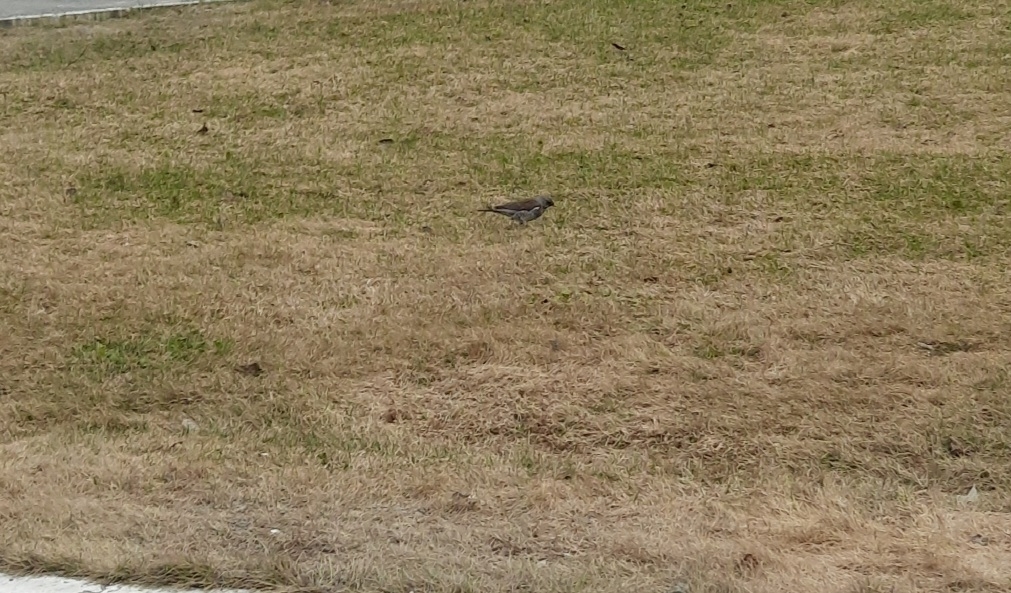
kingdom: Animalia
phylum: Chordata
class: Aves
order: Passeriformes
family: Turdidae
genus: Turdus
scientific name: Turdus pilaris
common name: Fieldfare
